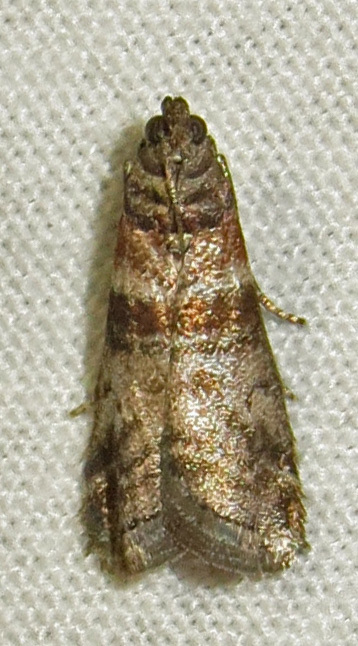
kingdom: Animalia
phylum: Arthropoda
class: Insecta
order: Lepidoptera
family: Pyralidae
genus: Sciota
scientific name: Sciota uvinella
